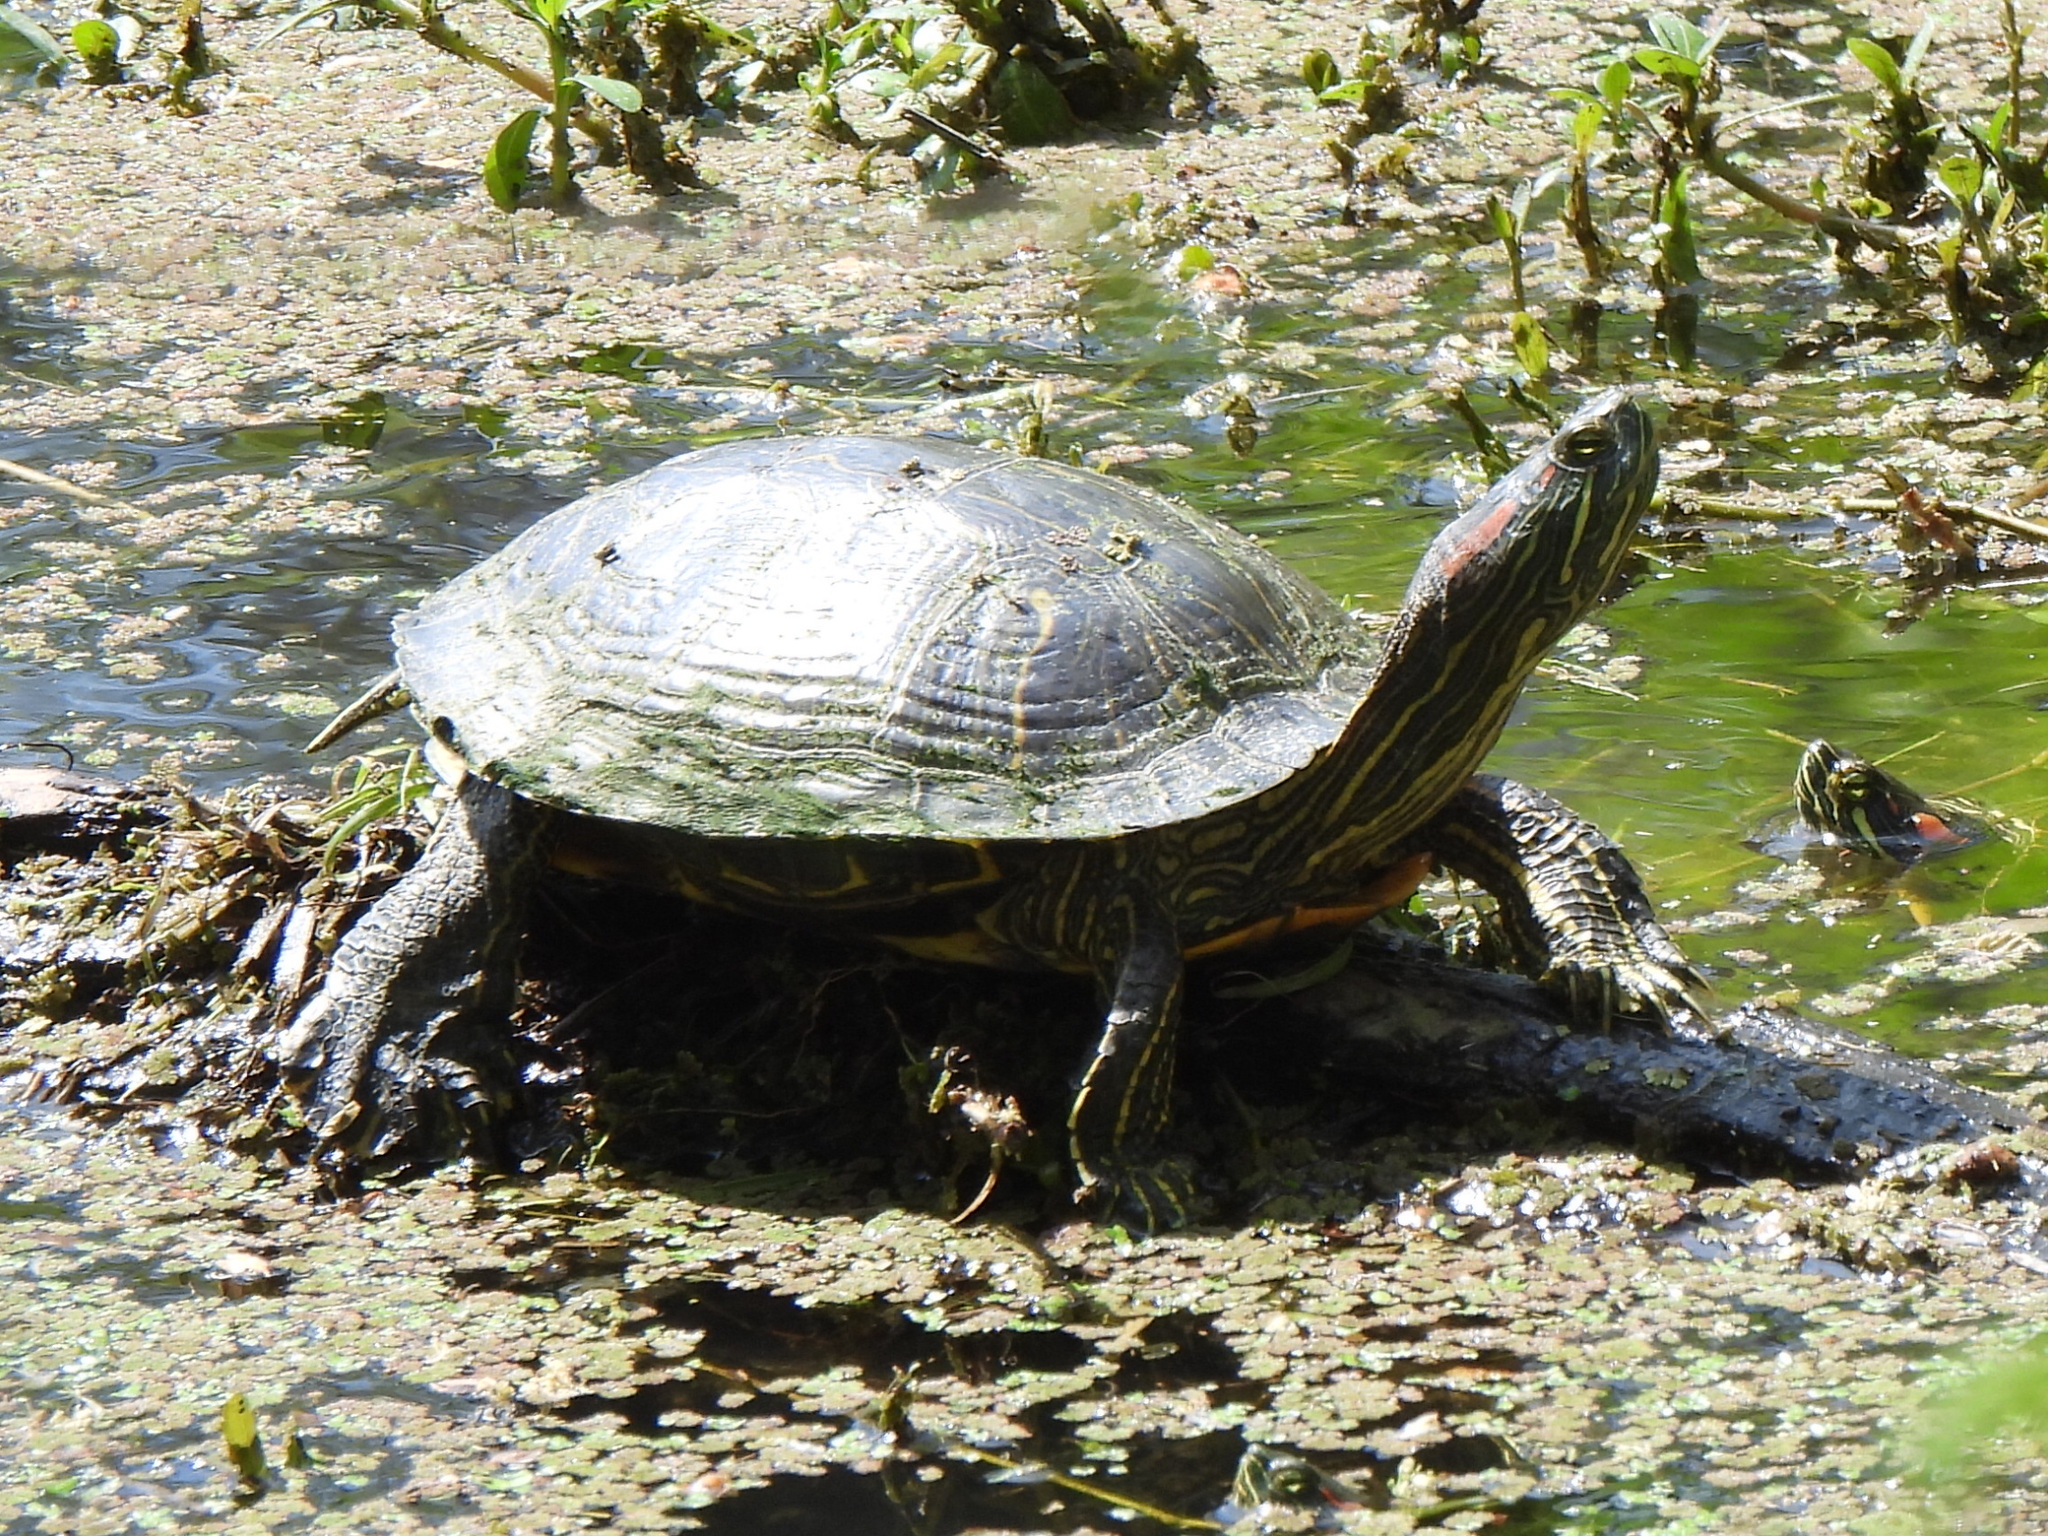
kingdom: Animalia
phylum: Chordata
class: Testudines
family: Emydidae
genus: Trachemys
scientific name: Trachemys scripta
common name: Slider
